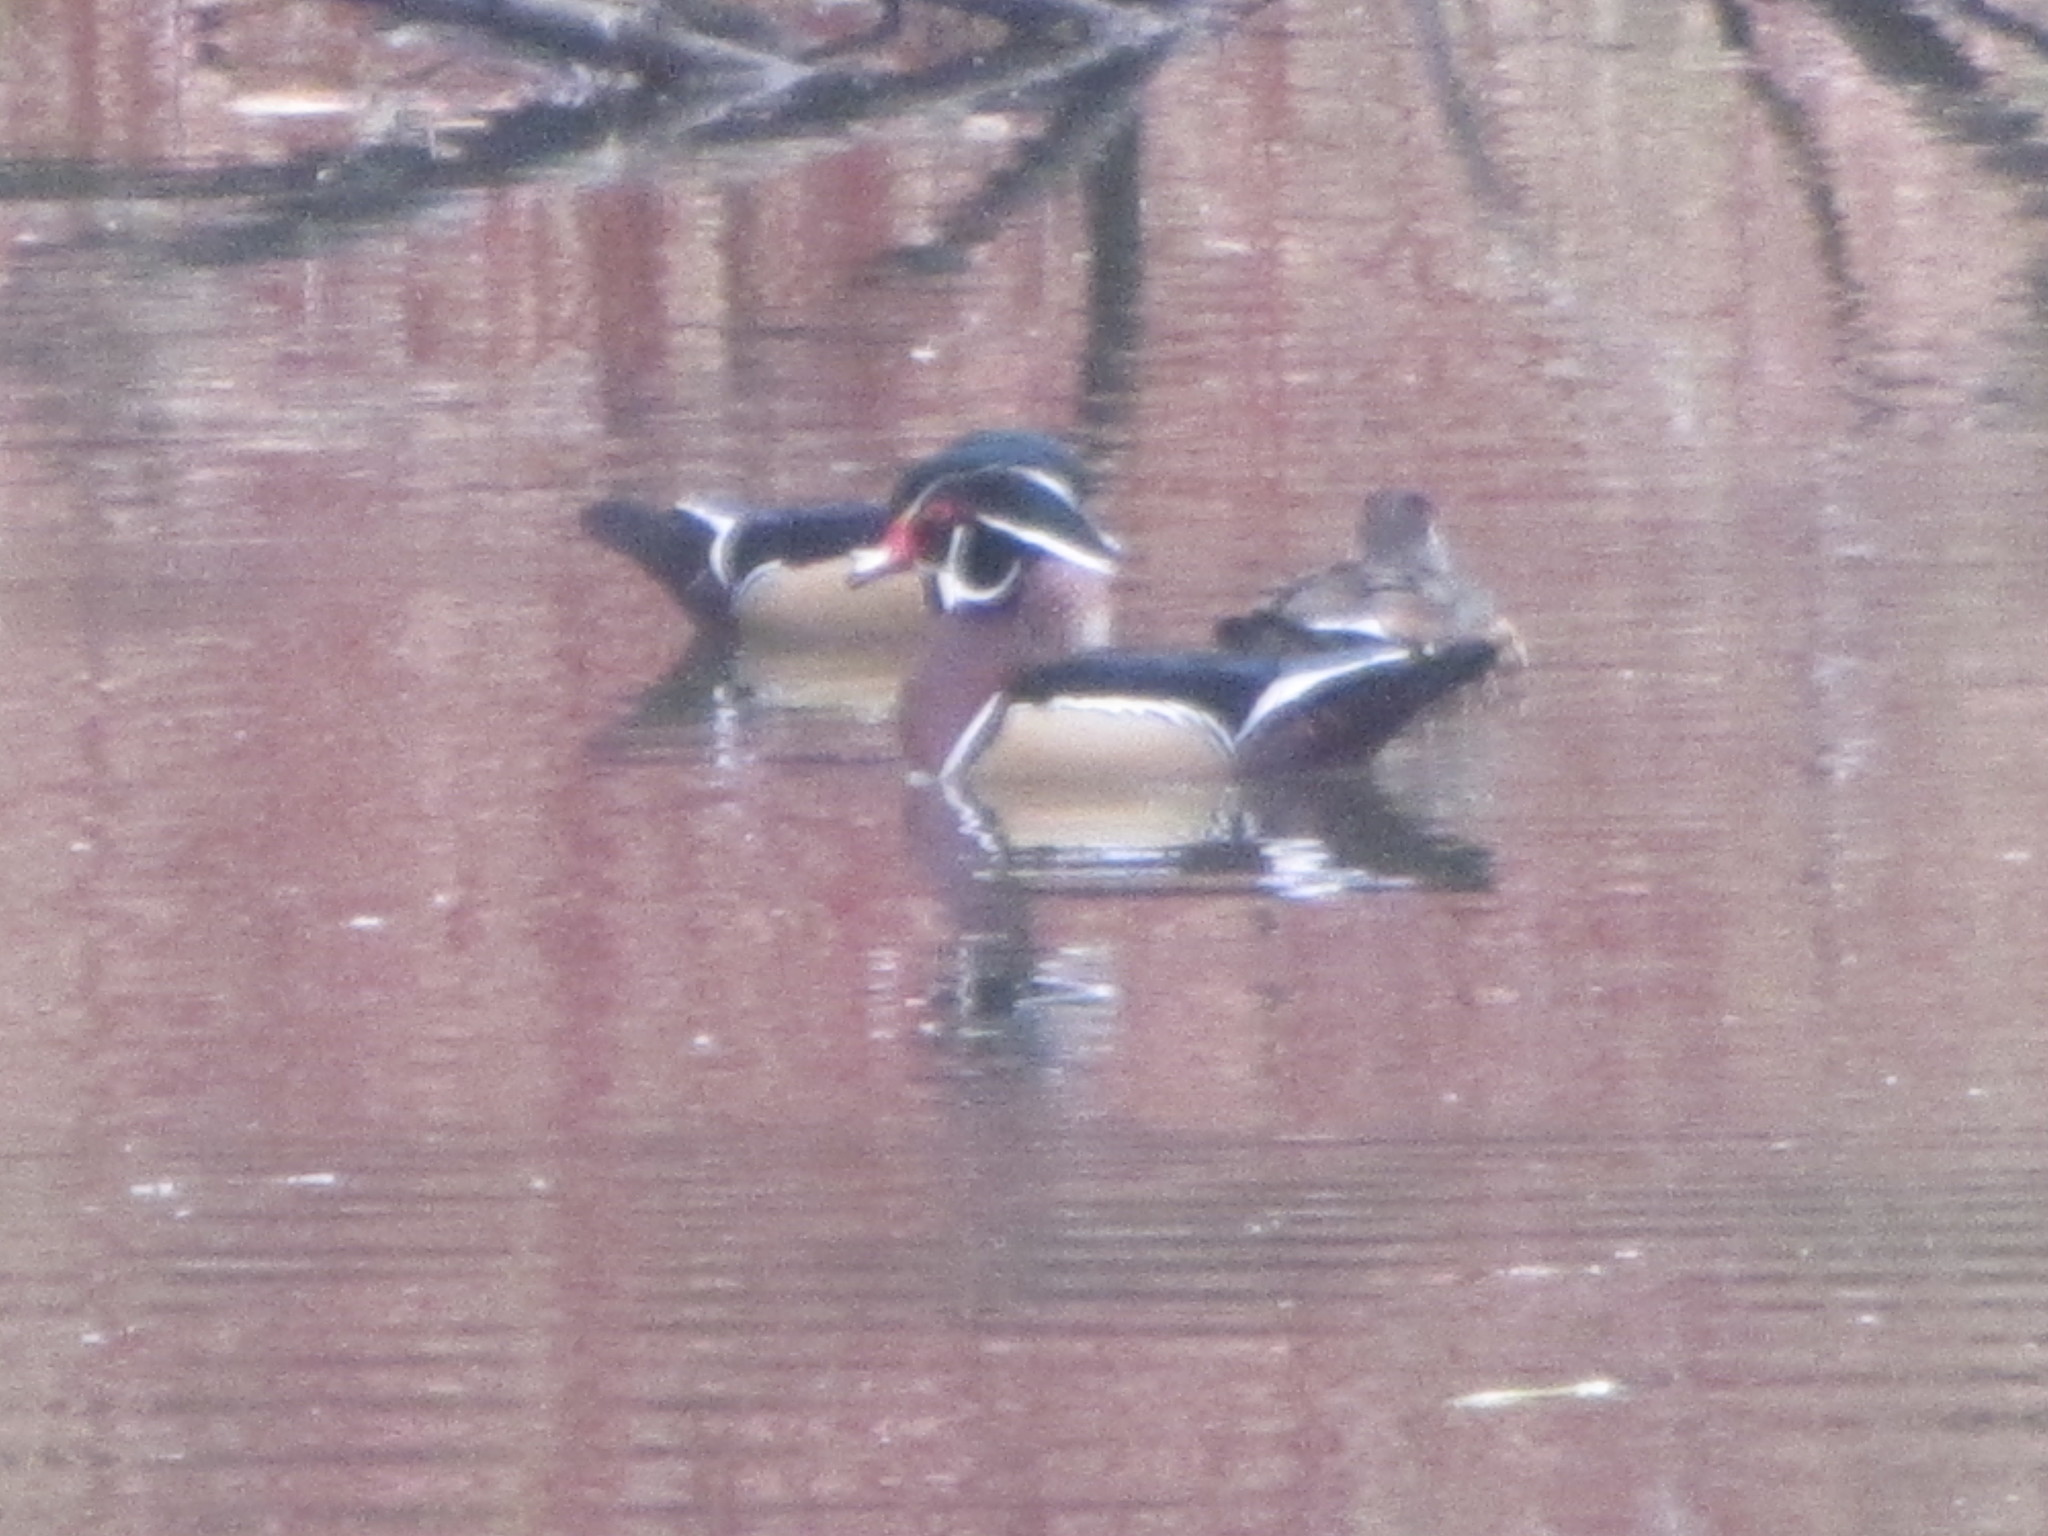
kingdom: Animalia
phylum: Chordata
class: Aves
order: Anseriformes
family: Anatidae
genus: Aix
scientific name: Aix sponsa
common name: Wood duck
